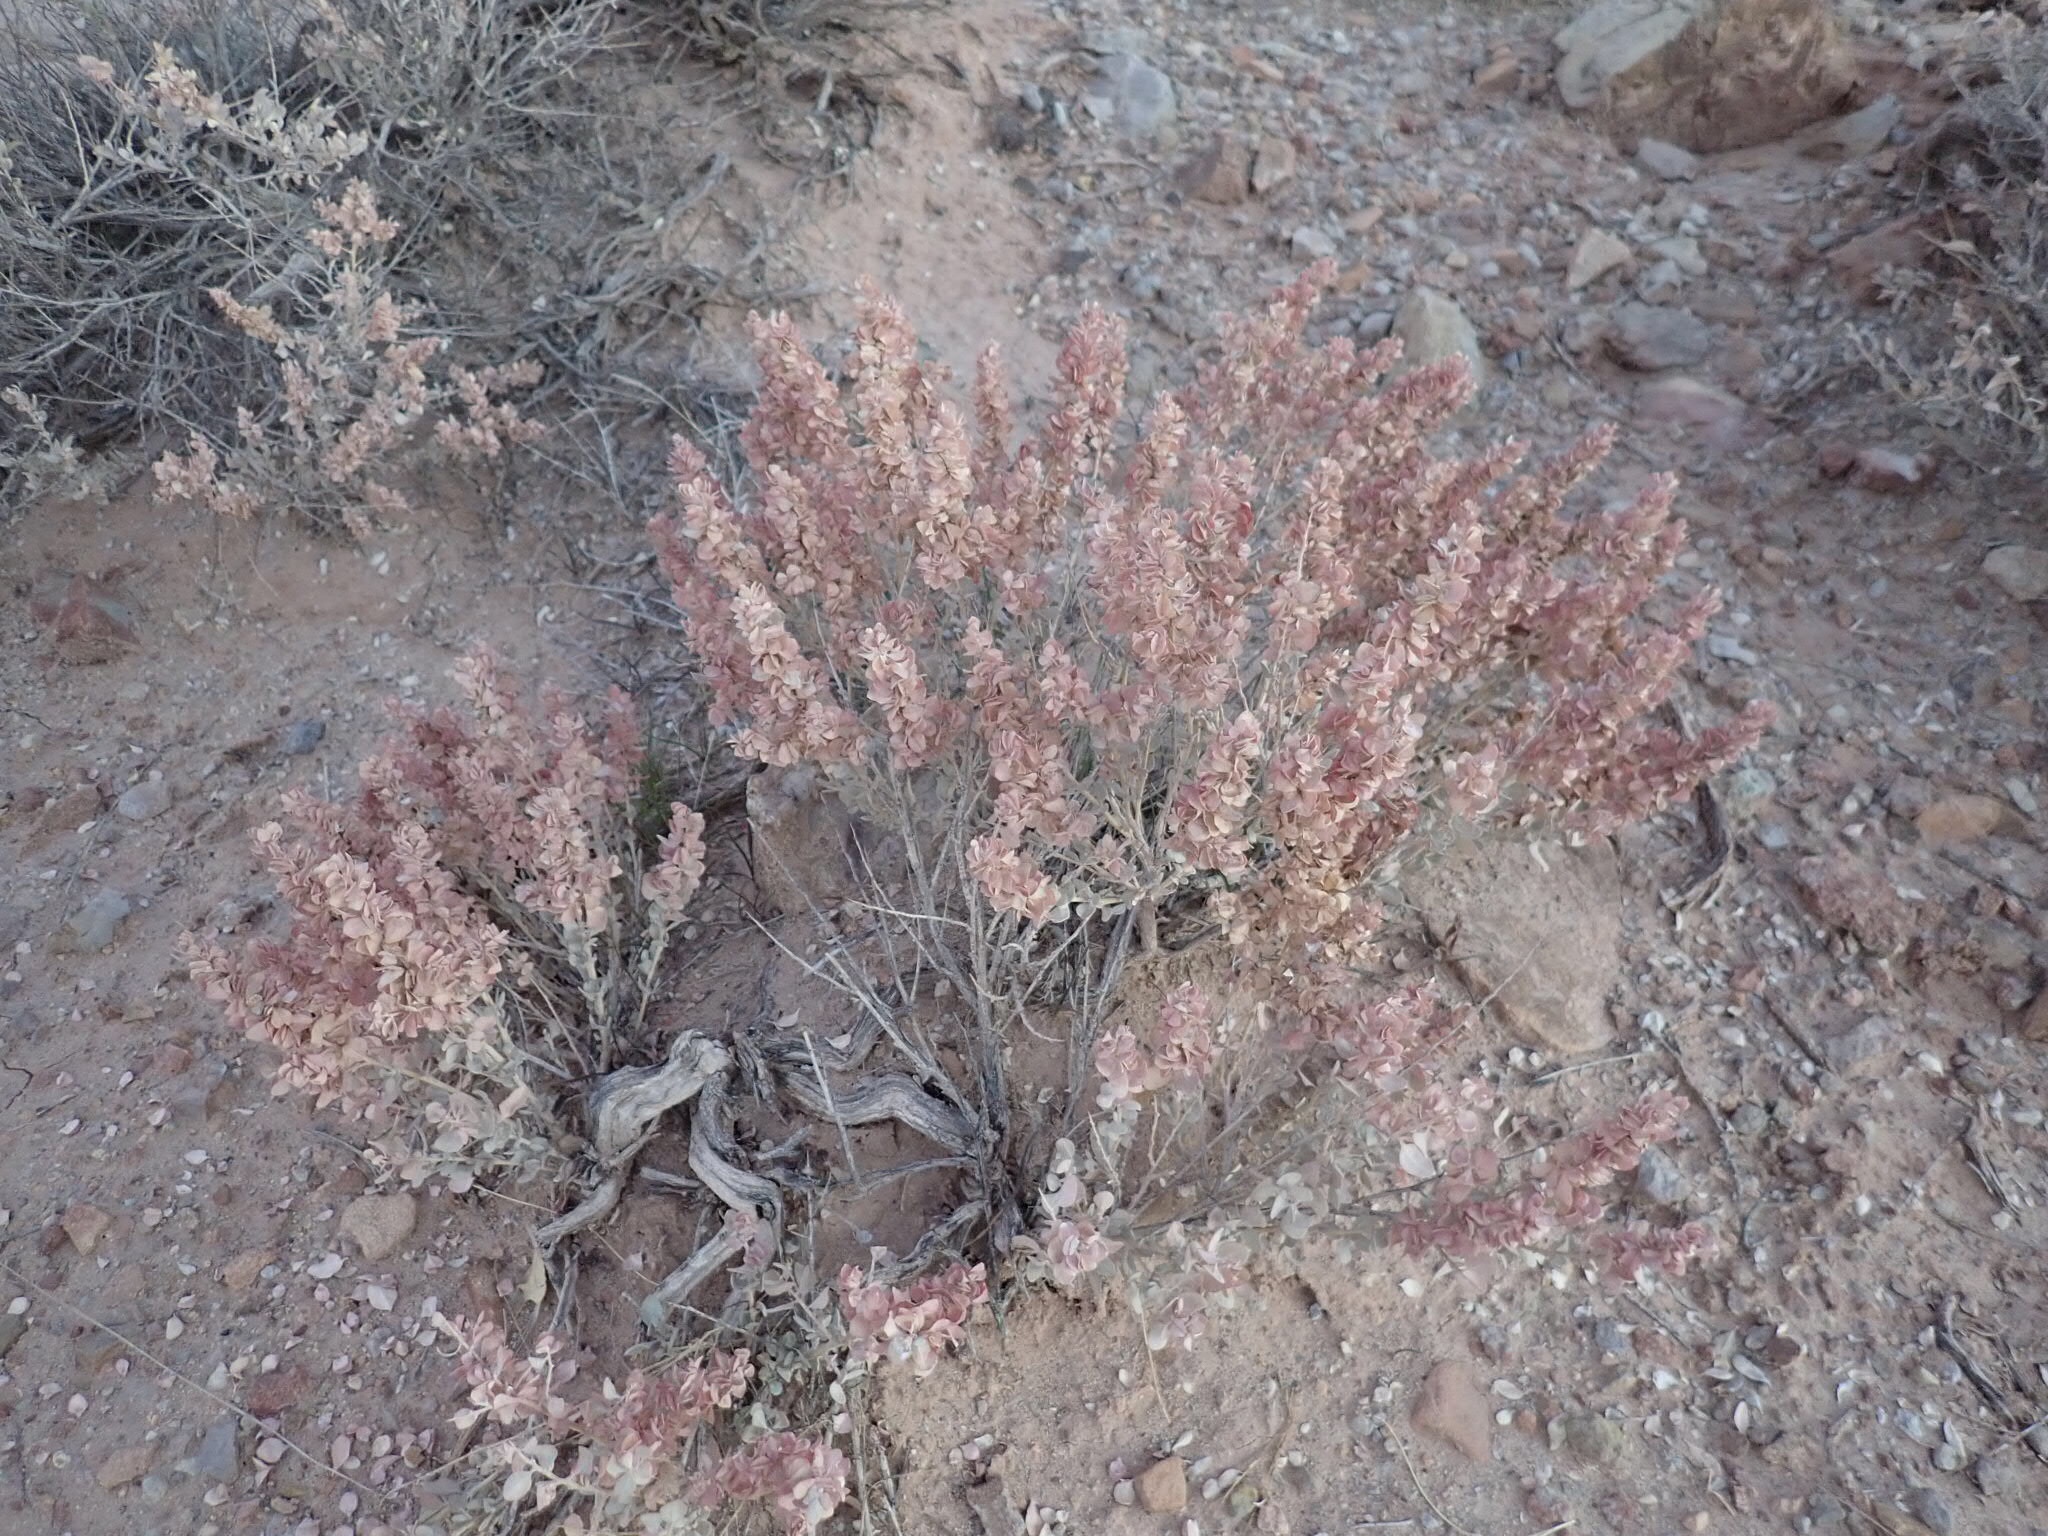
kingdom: Plantae
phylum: Tracheophyta
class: Magnoliopsida
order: Caryophyllales
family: Amaranthaceae
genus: Atriplex
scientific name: Atriplex confertifolia
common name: Shadscale
